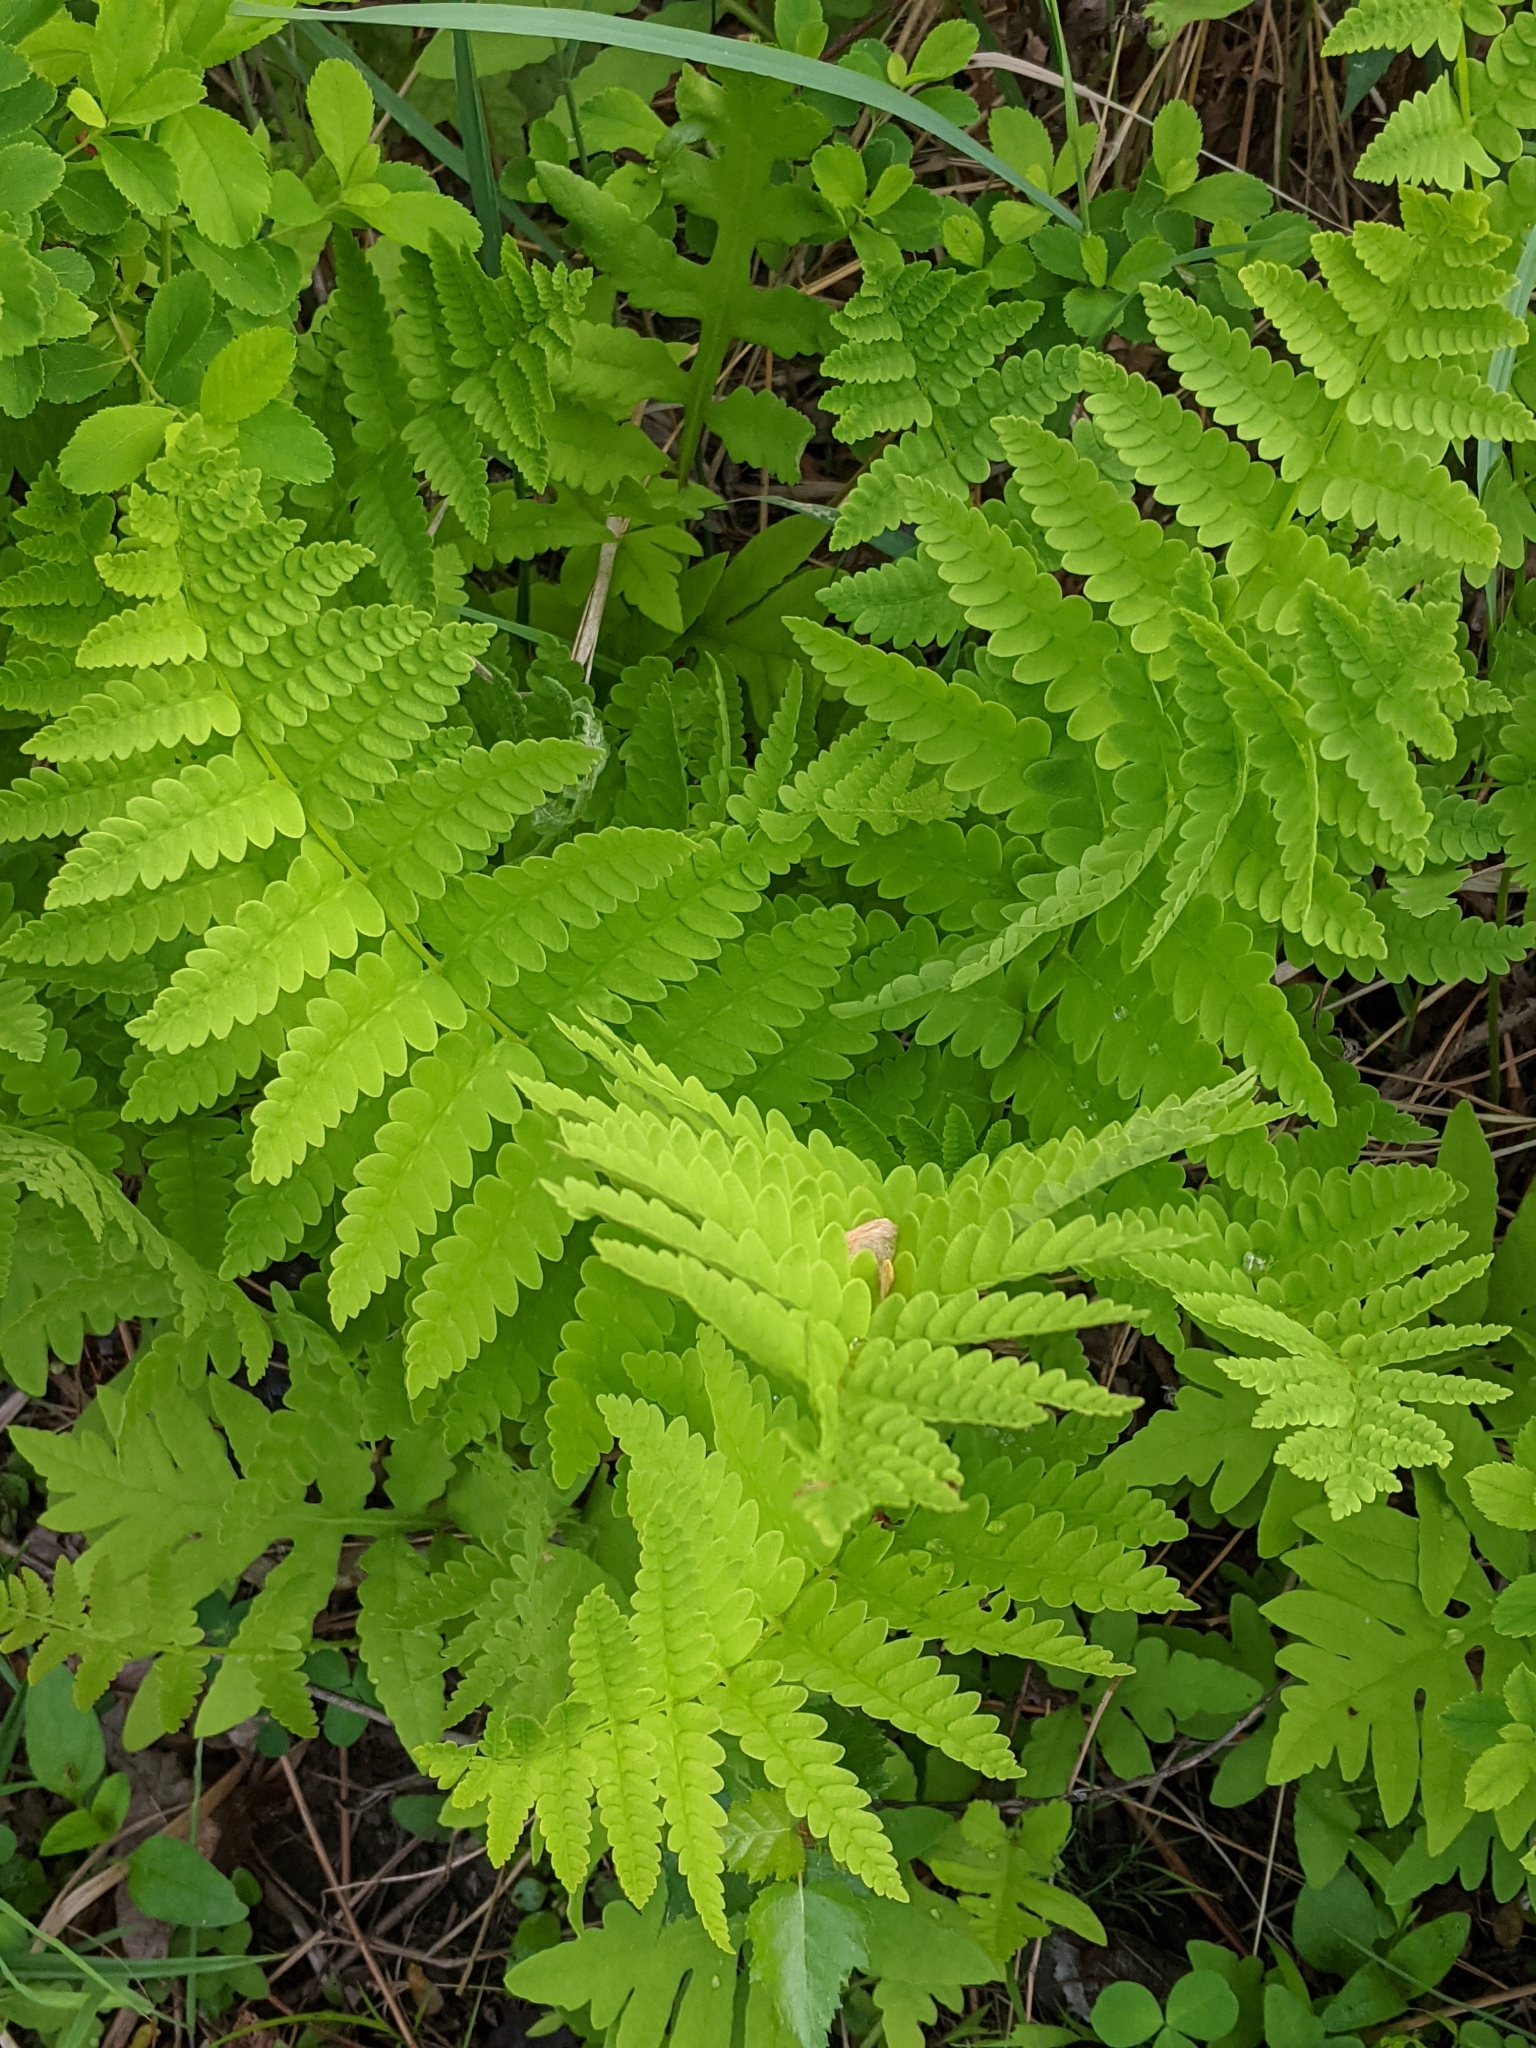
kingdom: Plantae
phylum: Tracheophyta
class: Polypodiopsida
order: Osmundales
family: Osmundaceae
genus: Claytosmunda
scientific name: Claytosmunda claytoniana
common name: Clayton's fern
